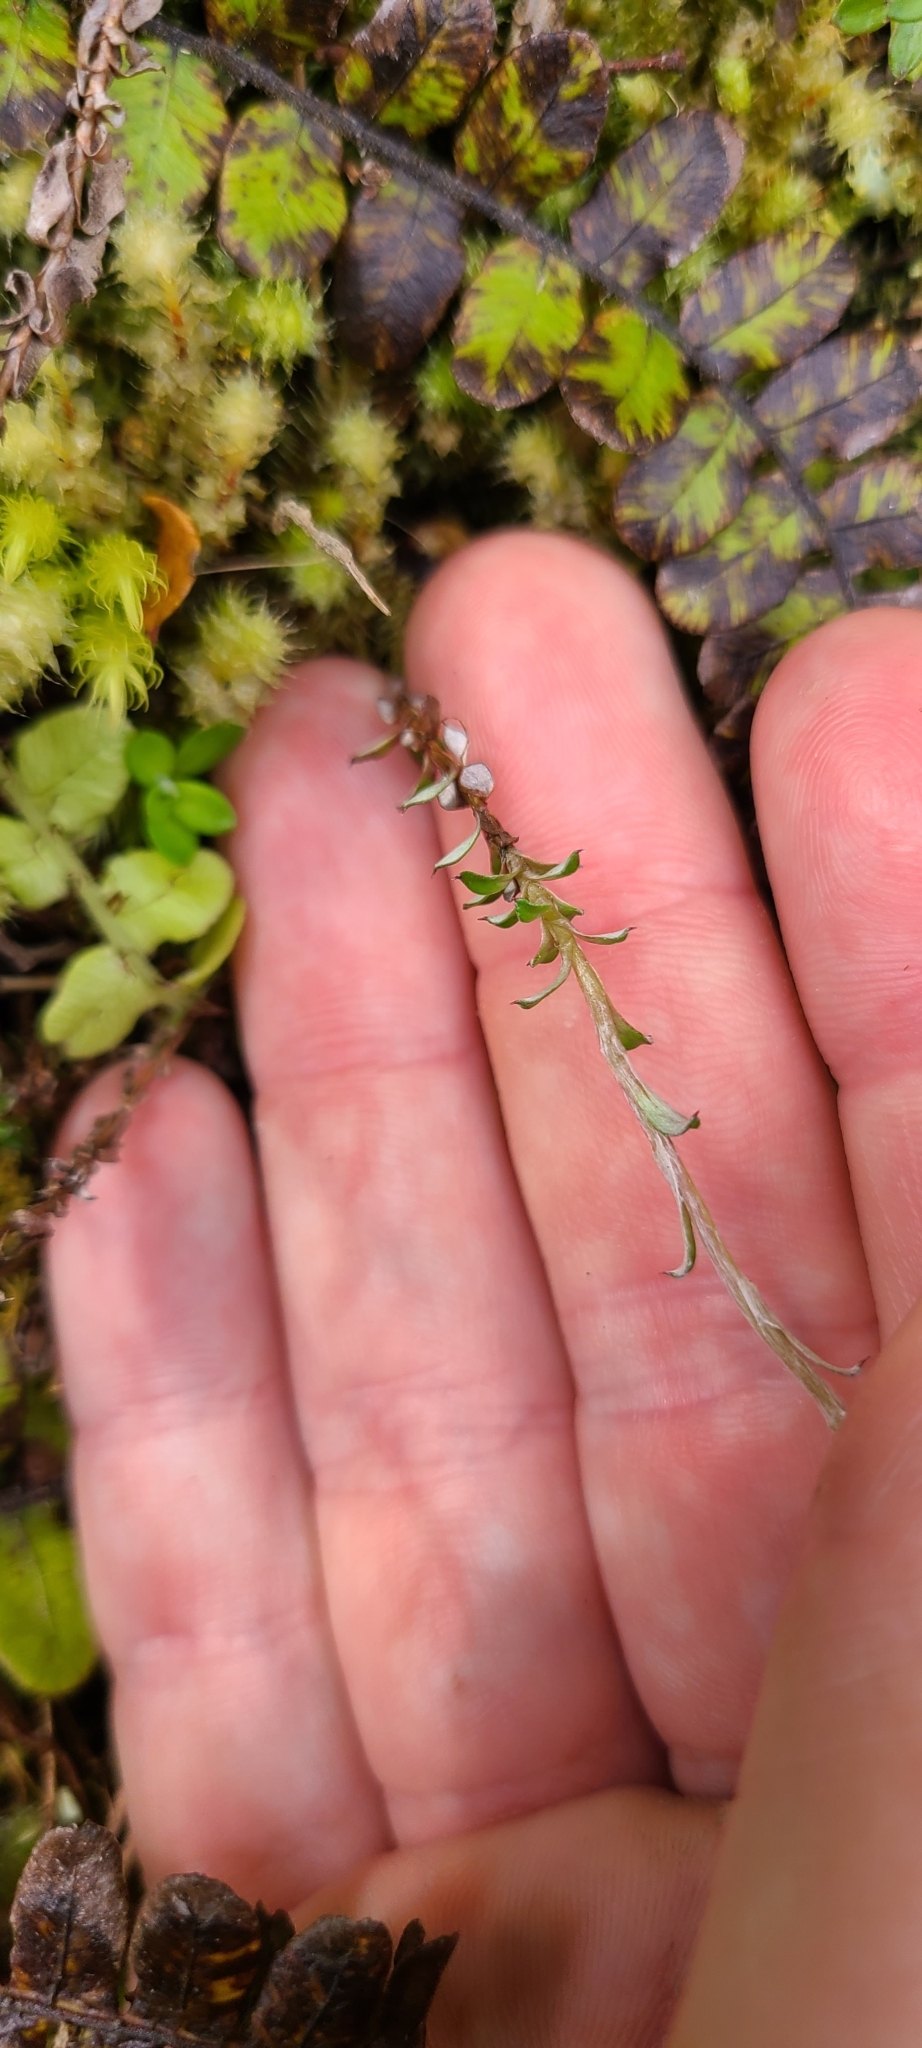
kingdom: Plantae
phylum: Tracheophyta
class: Magnoliopsida
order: Asterales
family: Asteraceae
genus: Anaphalioides
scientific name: Anaphalioides bellidioides
